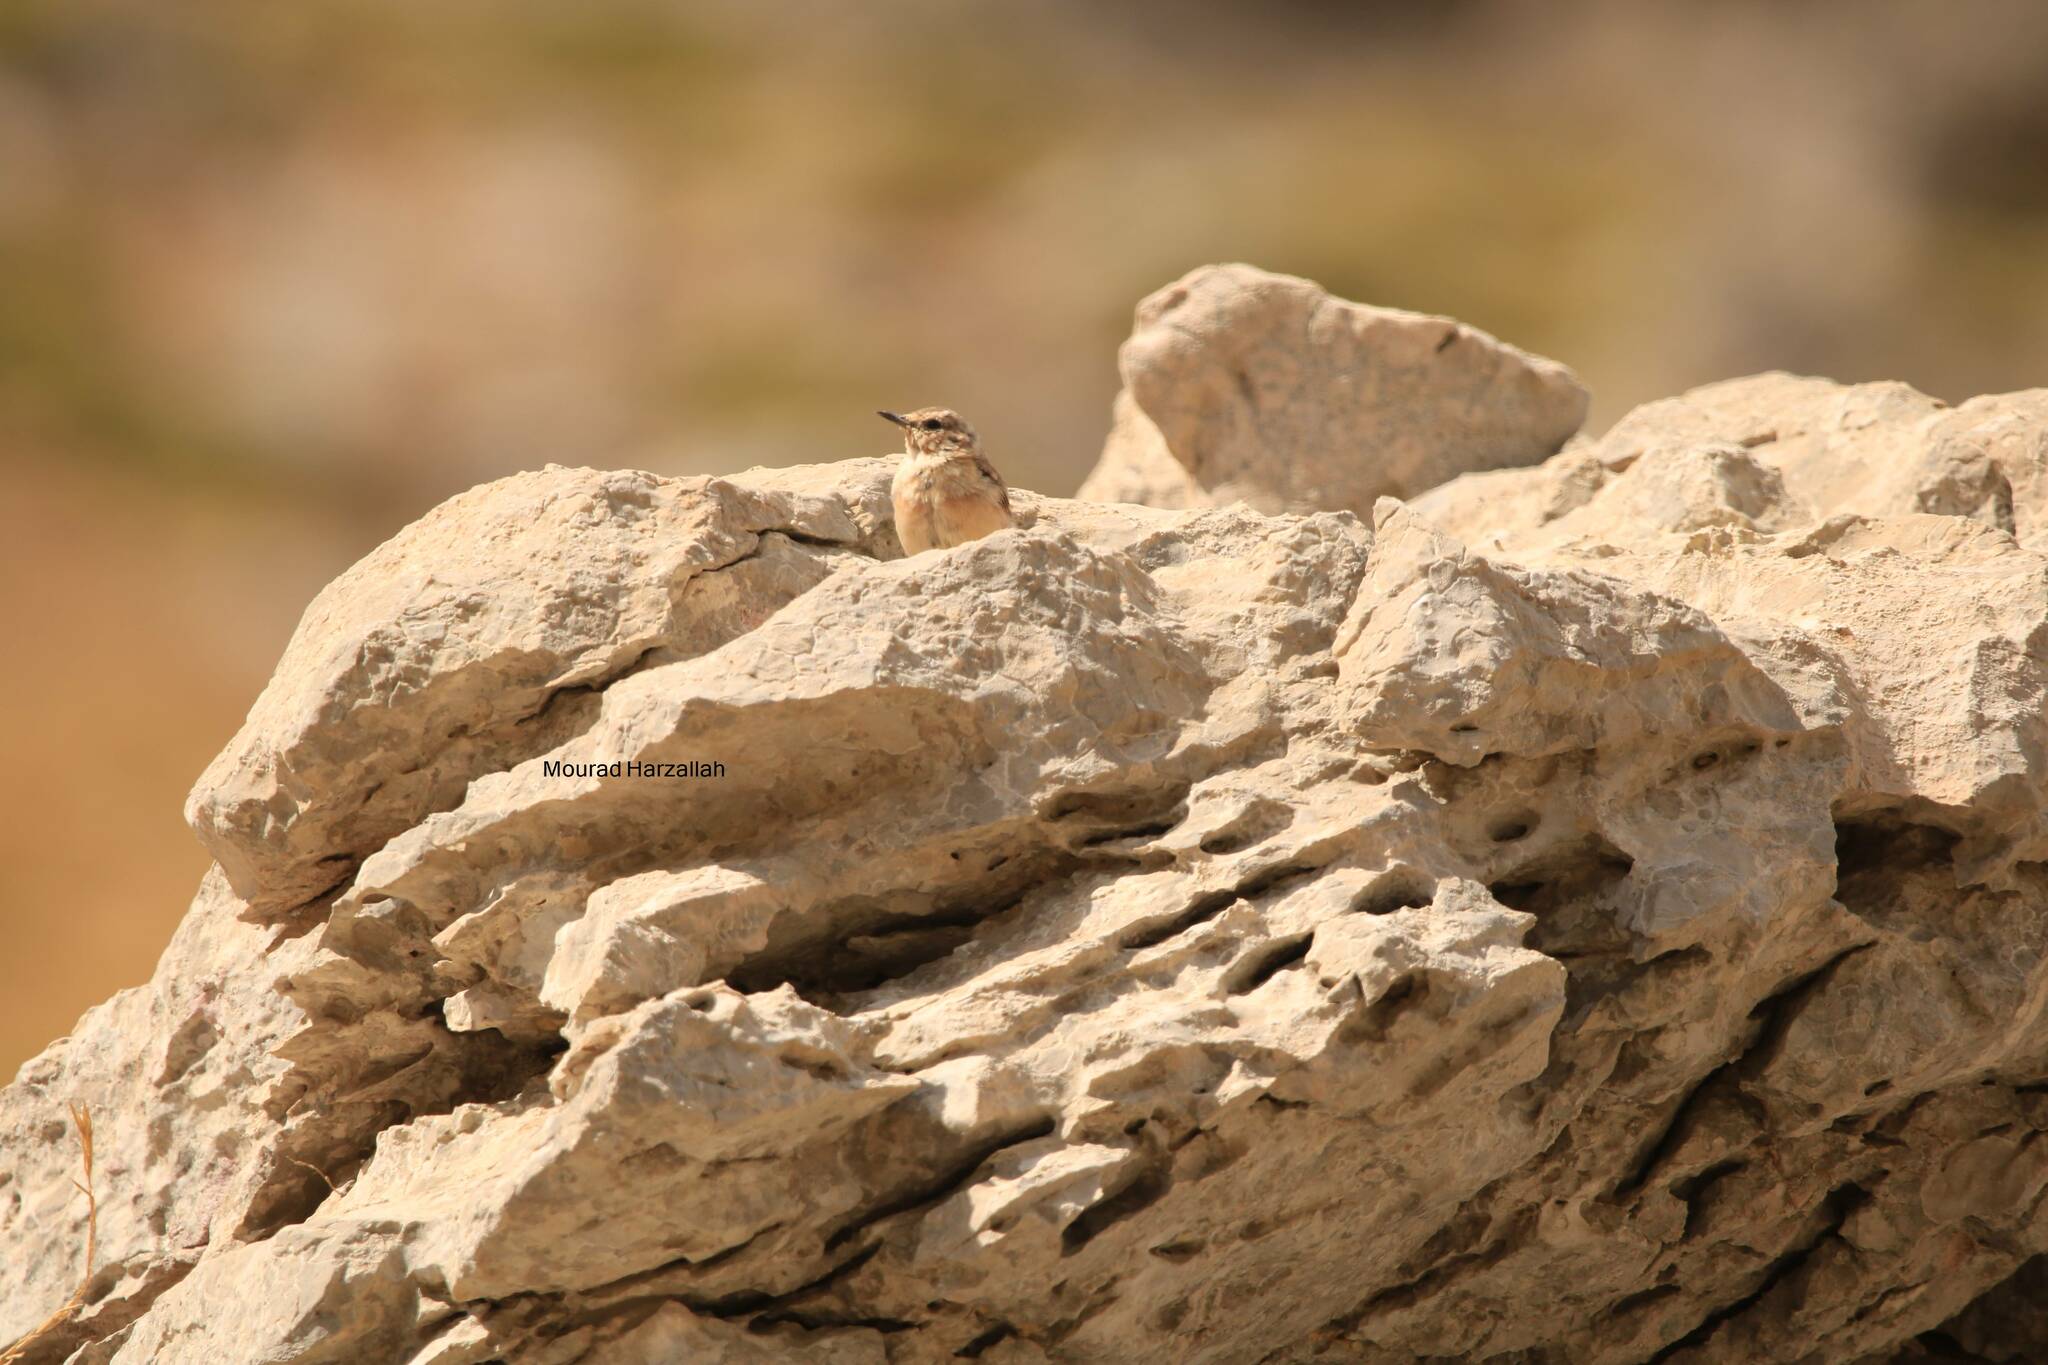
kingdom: Animalia
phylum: Chordata
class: Aves
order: Passeriformes
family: Muscicapidae
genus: Oenanthe
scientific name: Oenanthe oenanthe
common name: Northern wheatear
